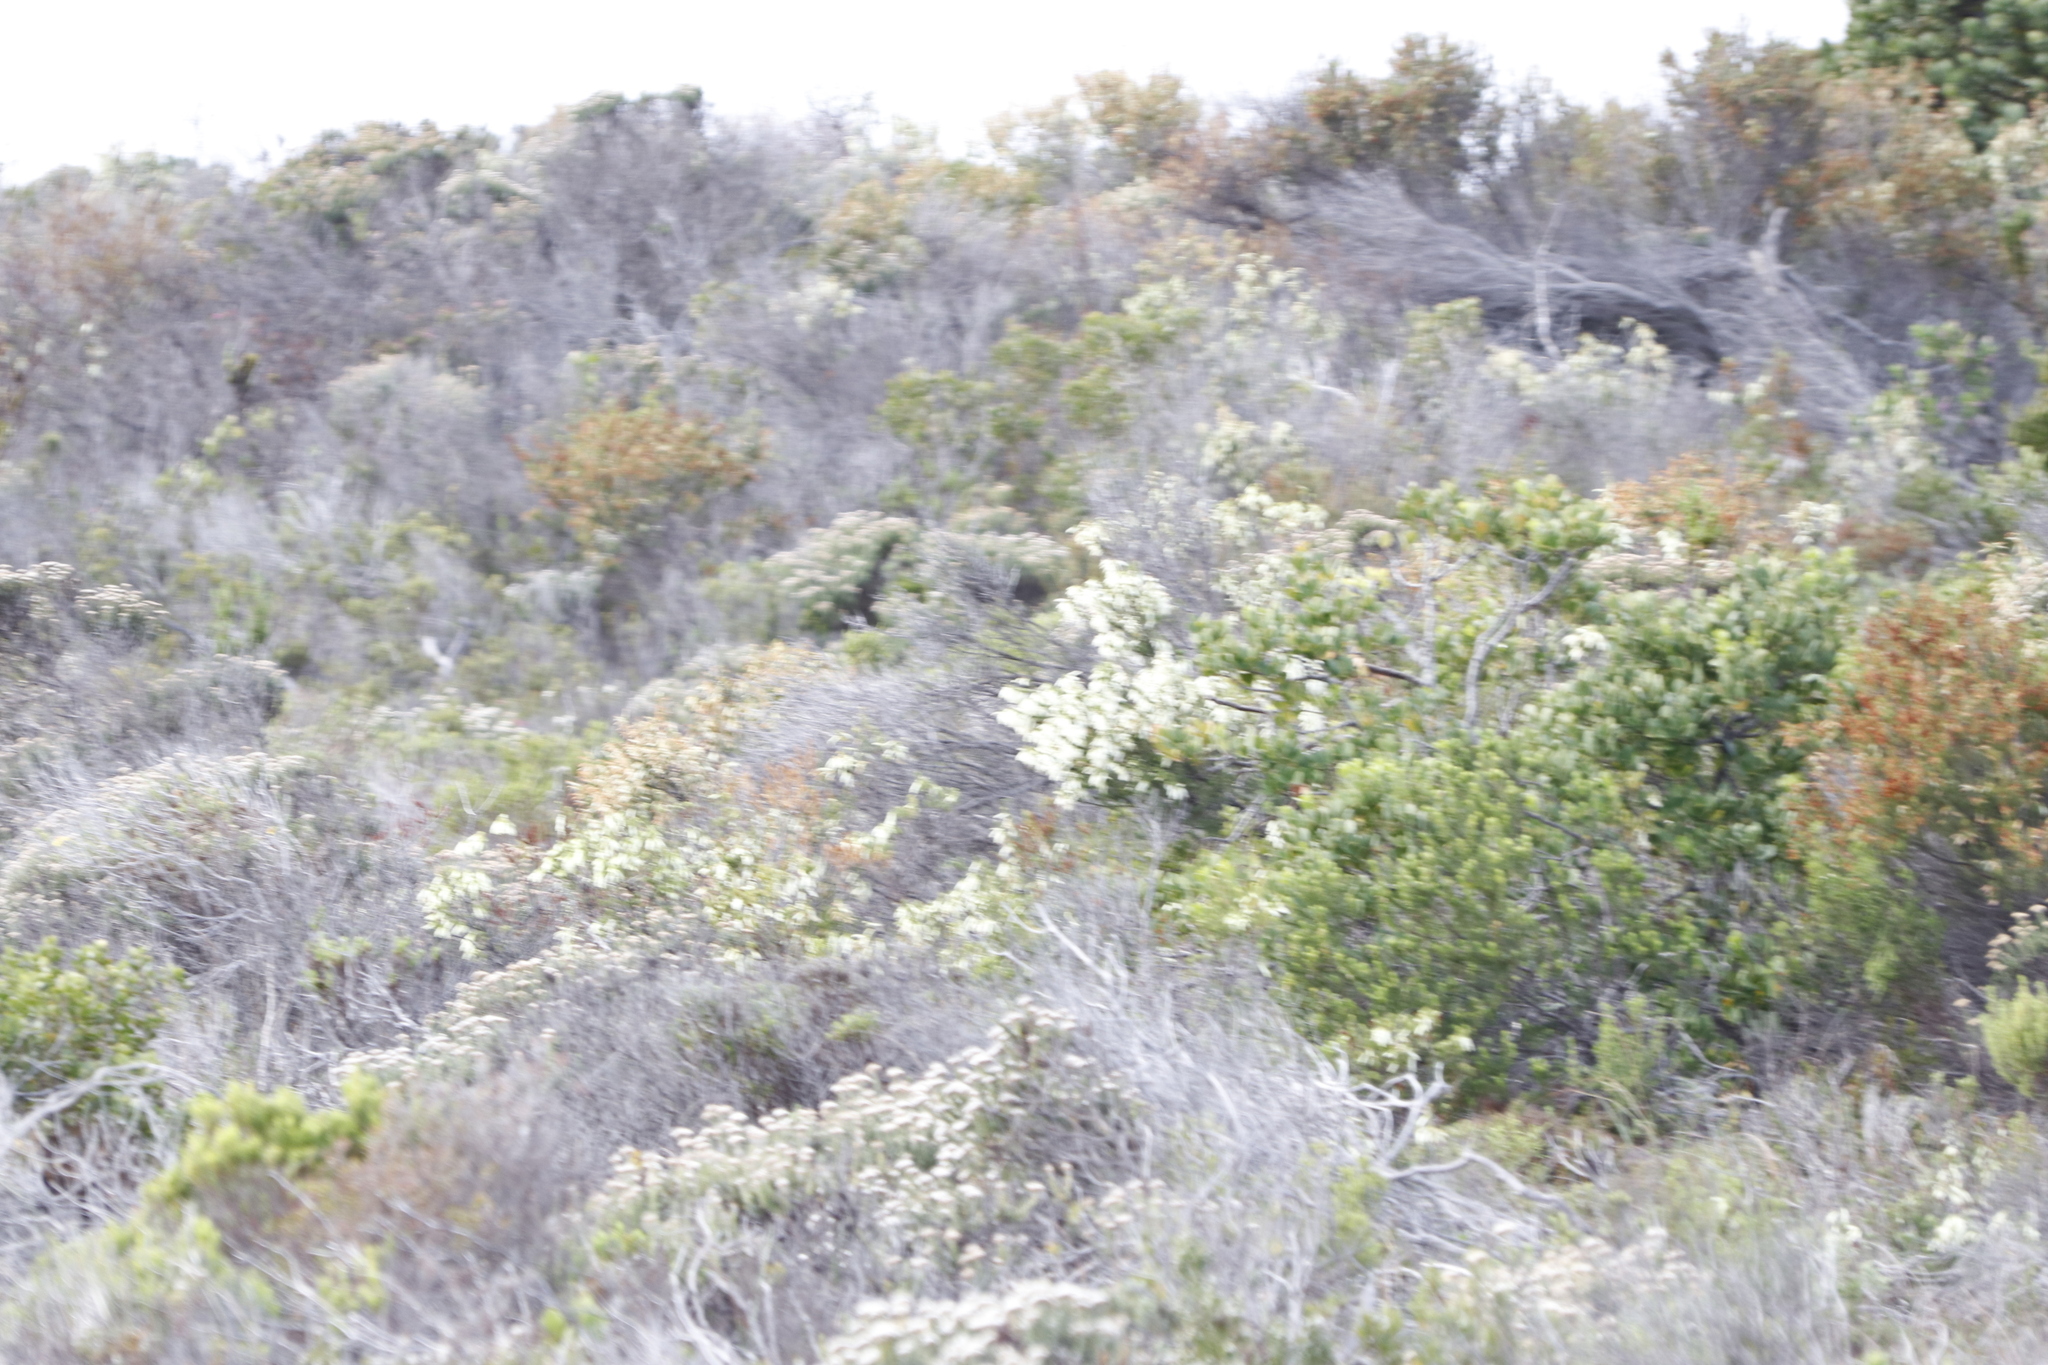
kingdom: Plantae
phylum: Tracheophyta
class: Magnoliopsida
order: Ericales
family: Ericaceae
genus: Erica
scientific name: Erica mammosa
